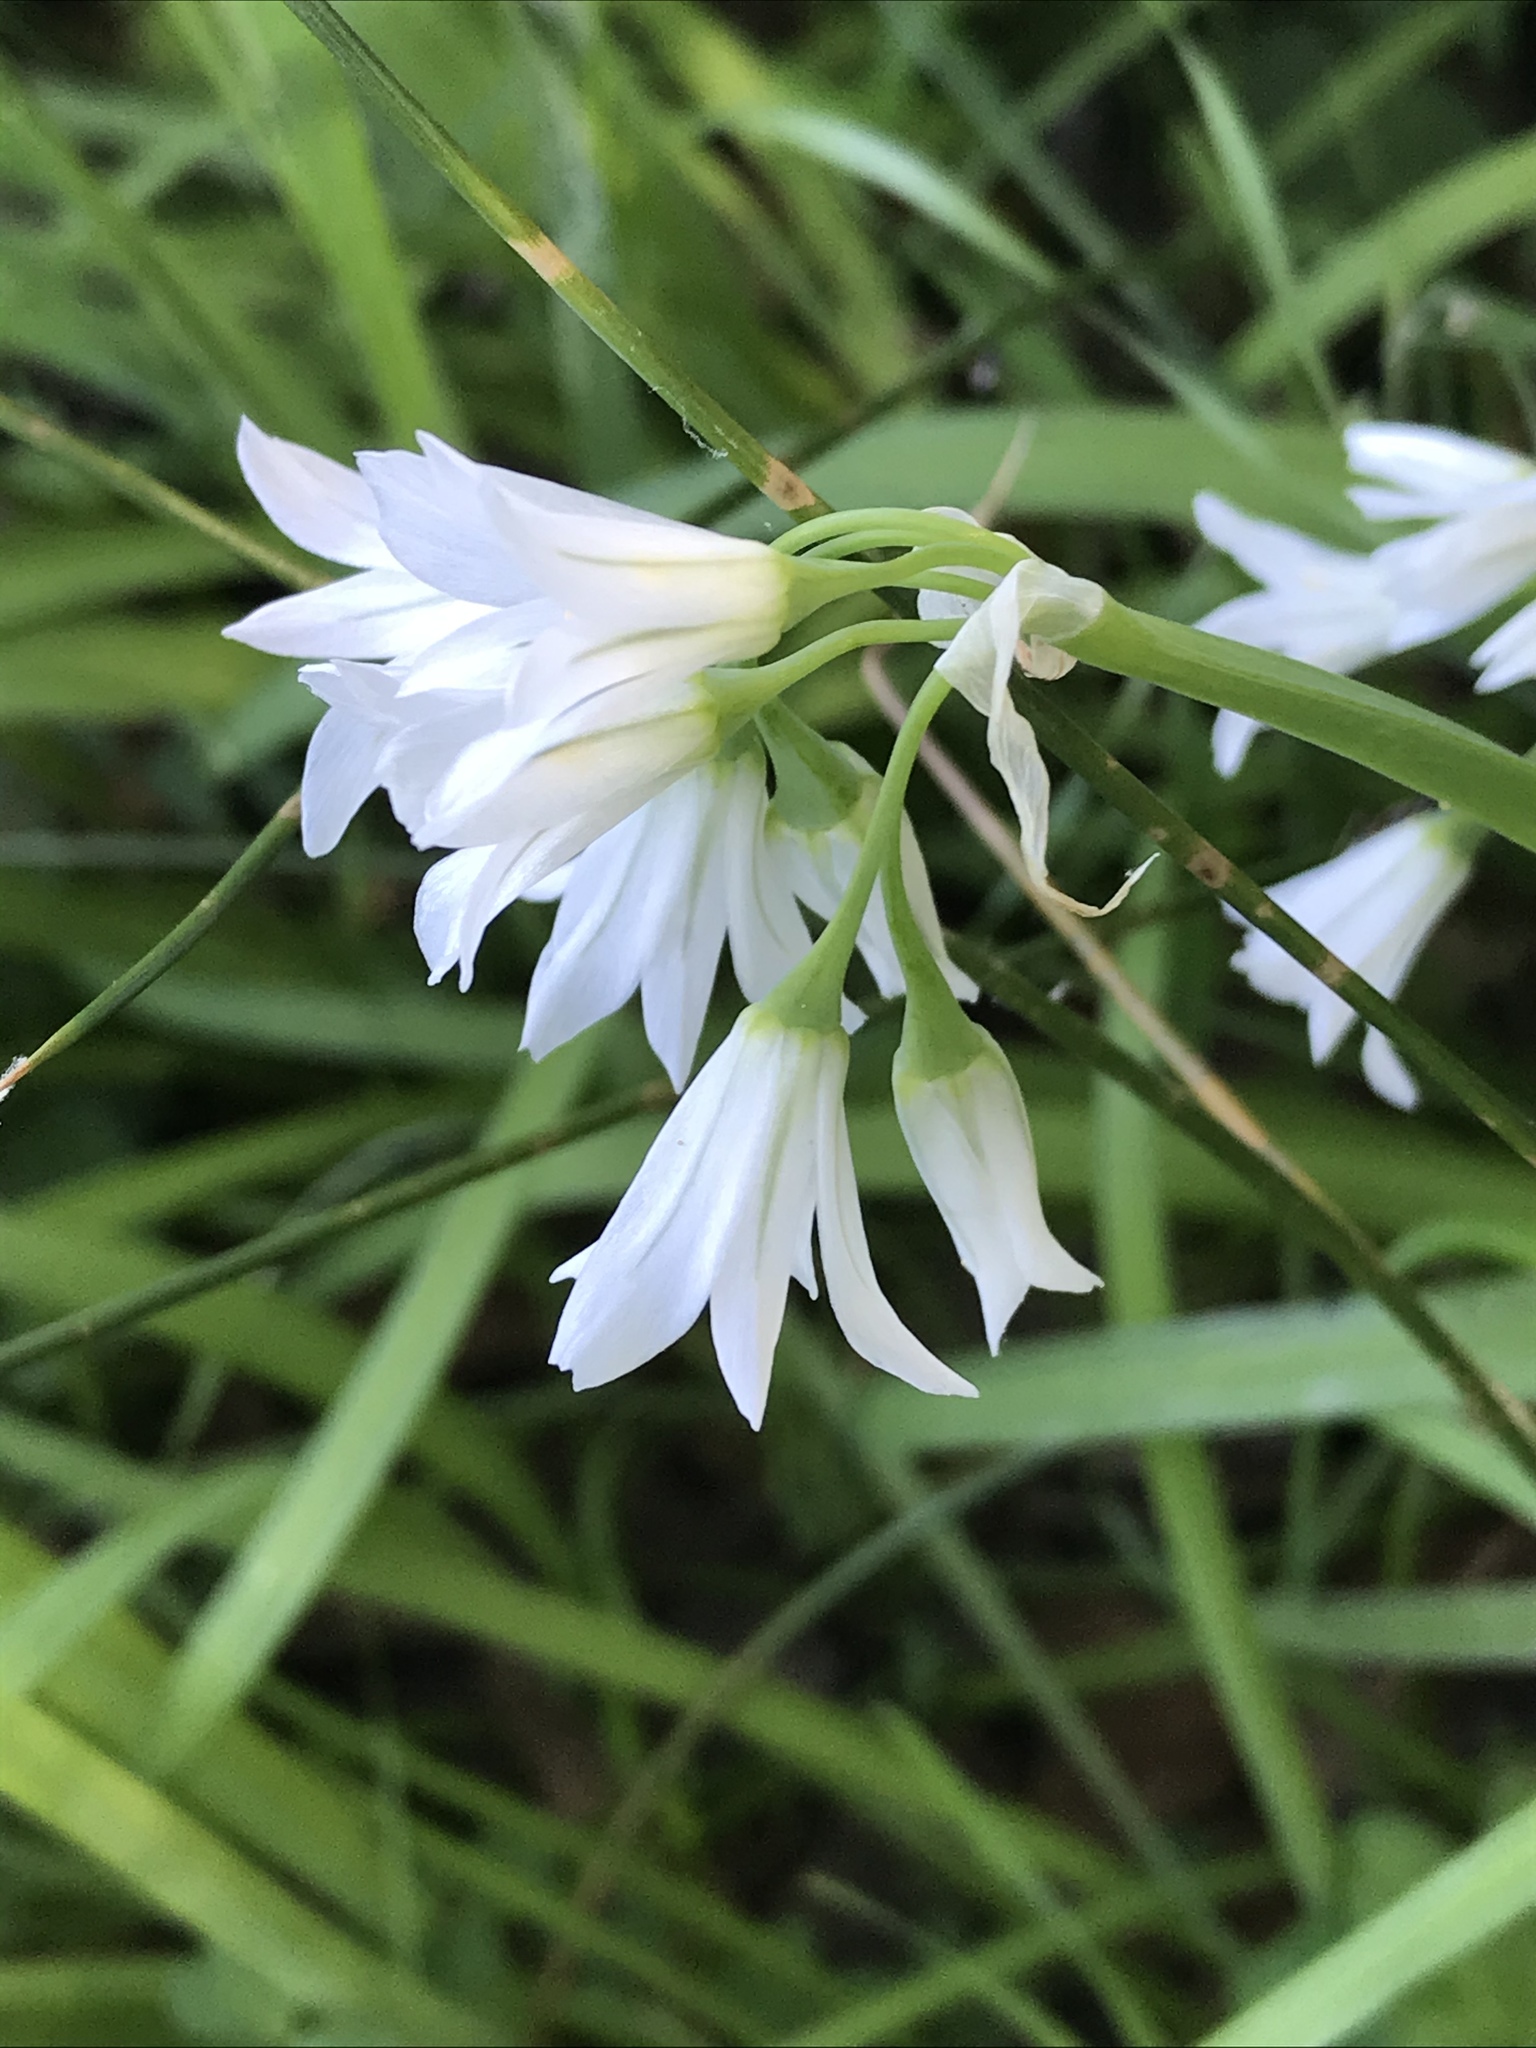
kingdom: Plantae
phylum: Tracheophyta
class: Liliopsida
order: Asparagales
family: Amaryllidaceae
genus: Allium
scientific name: Allium triquetrum
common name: Three-cornered garlic
